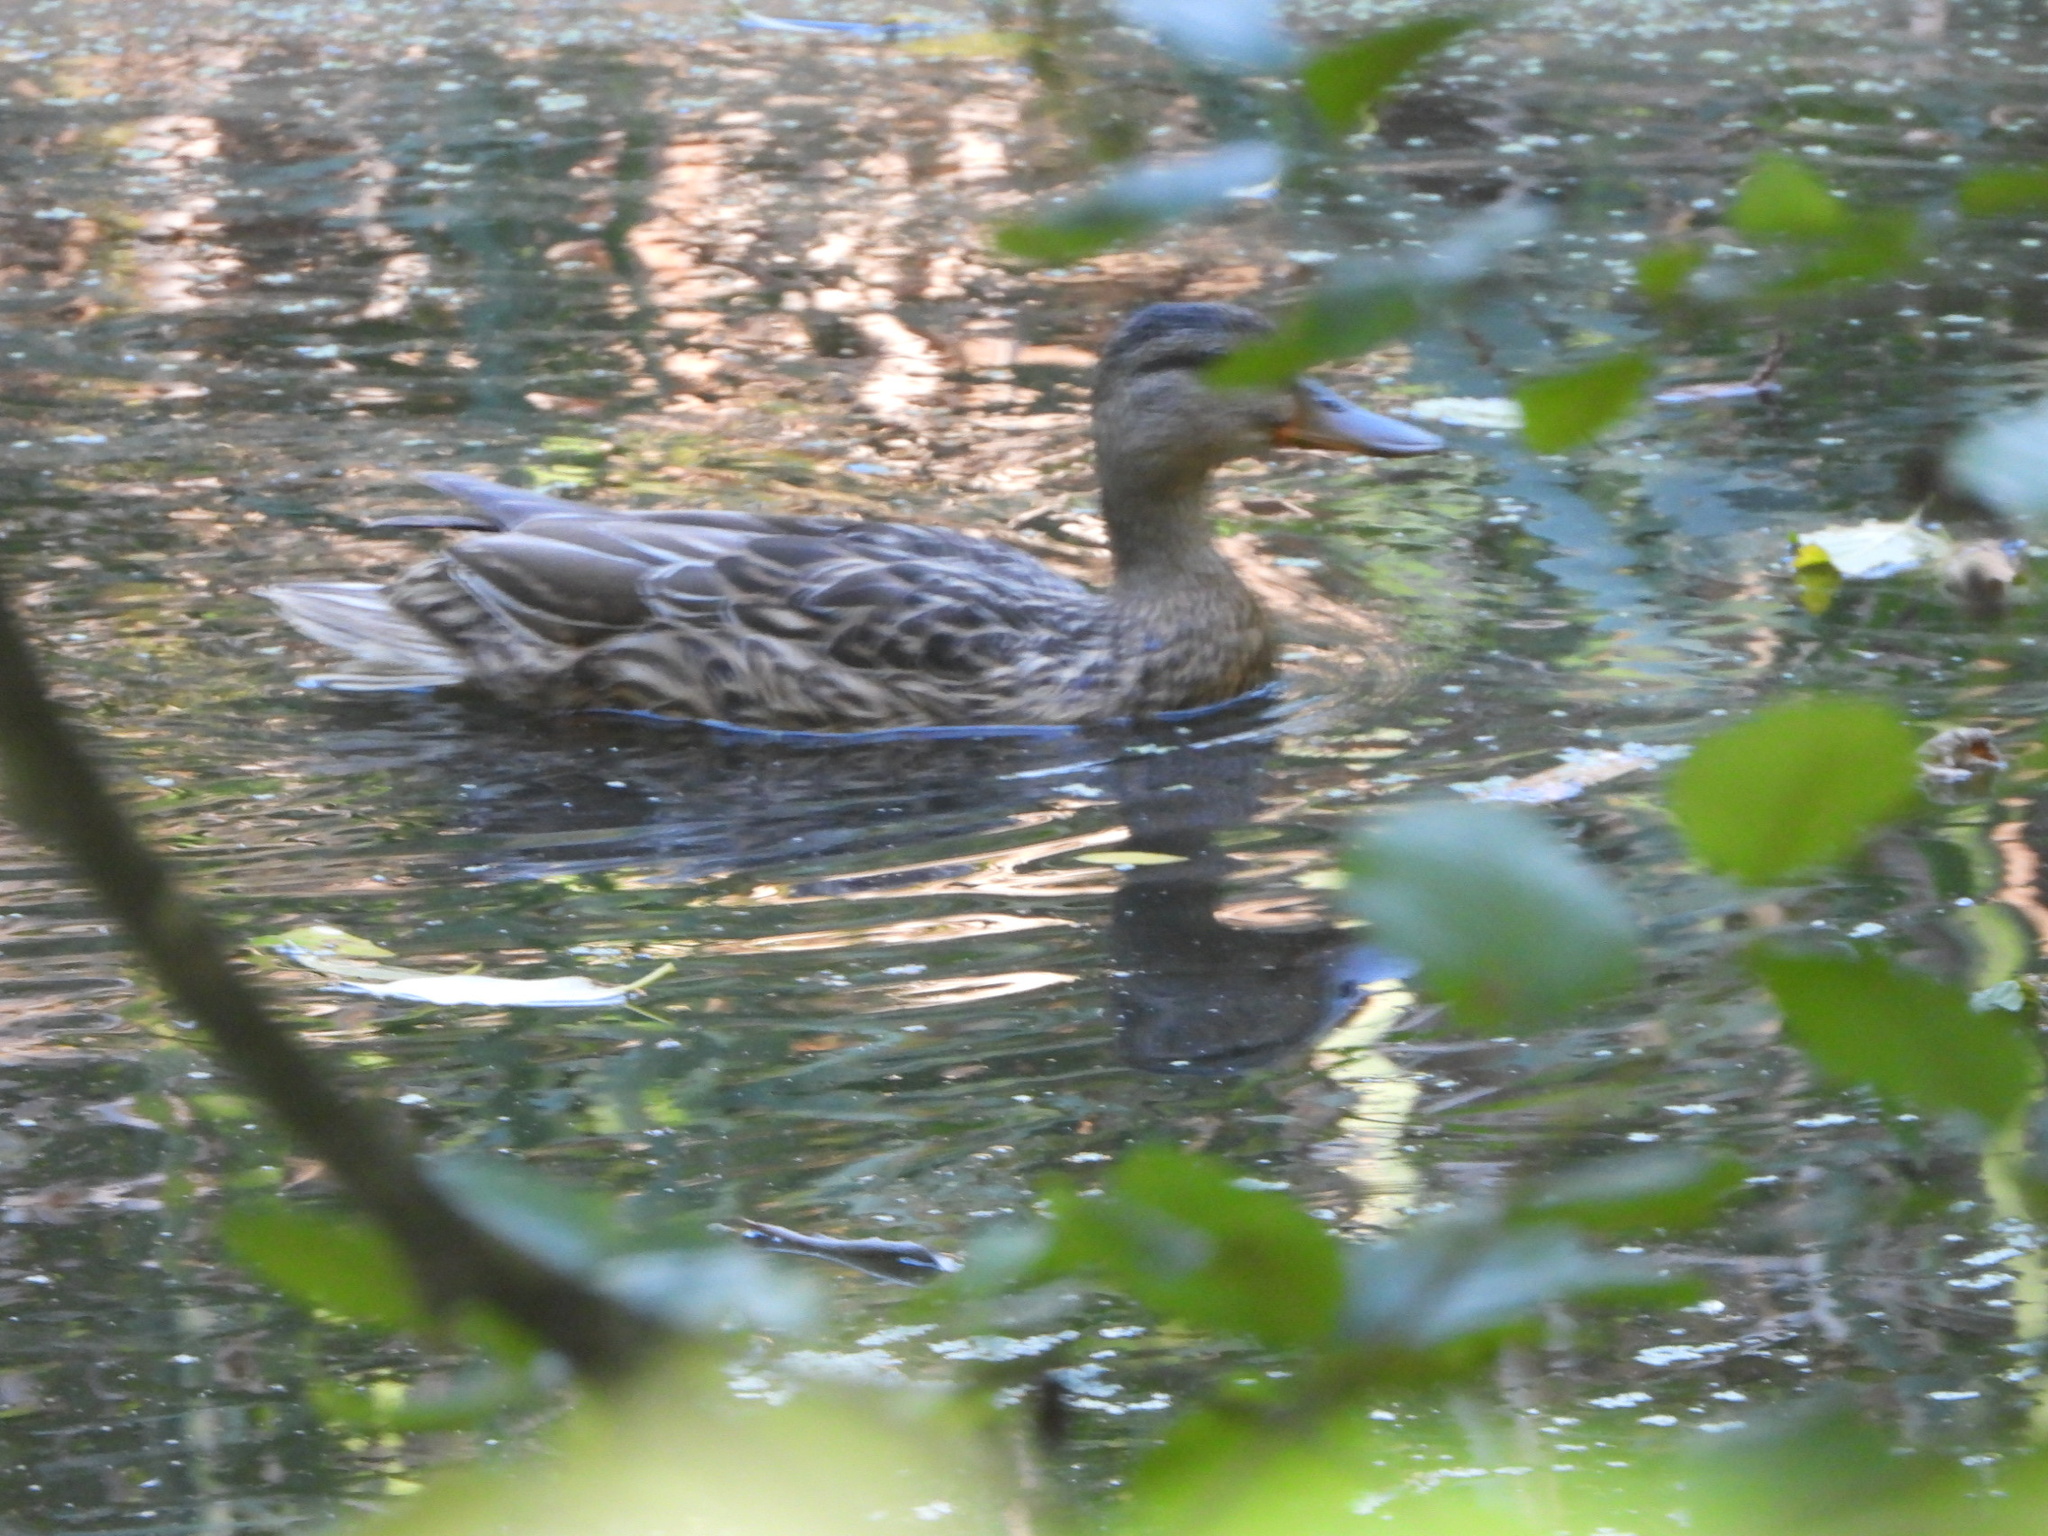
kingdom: Animalia
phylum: Chordata
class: Aves
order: Anseriformes
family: Anatidae
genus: Anas
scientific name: Anas platyrhynchos
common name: Mallard
